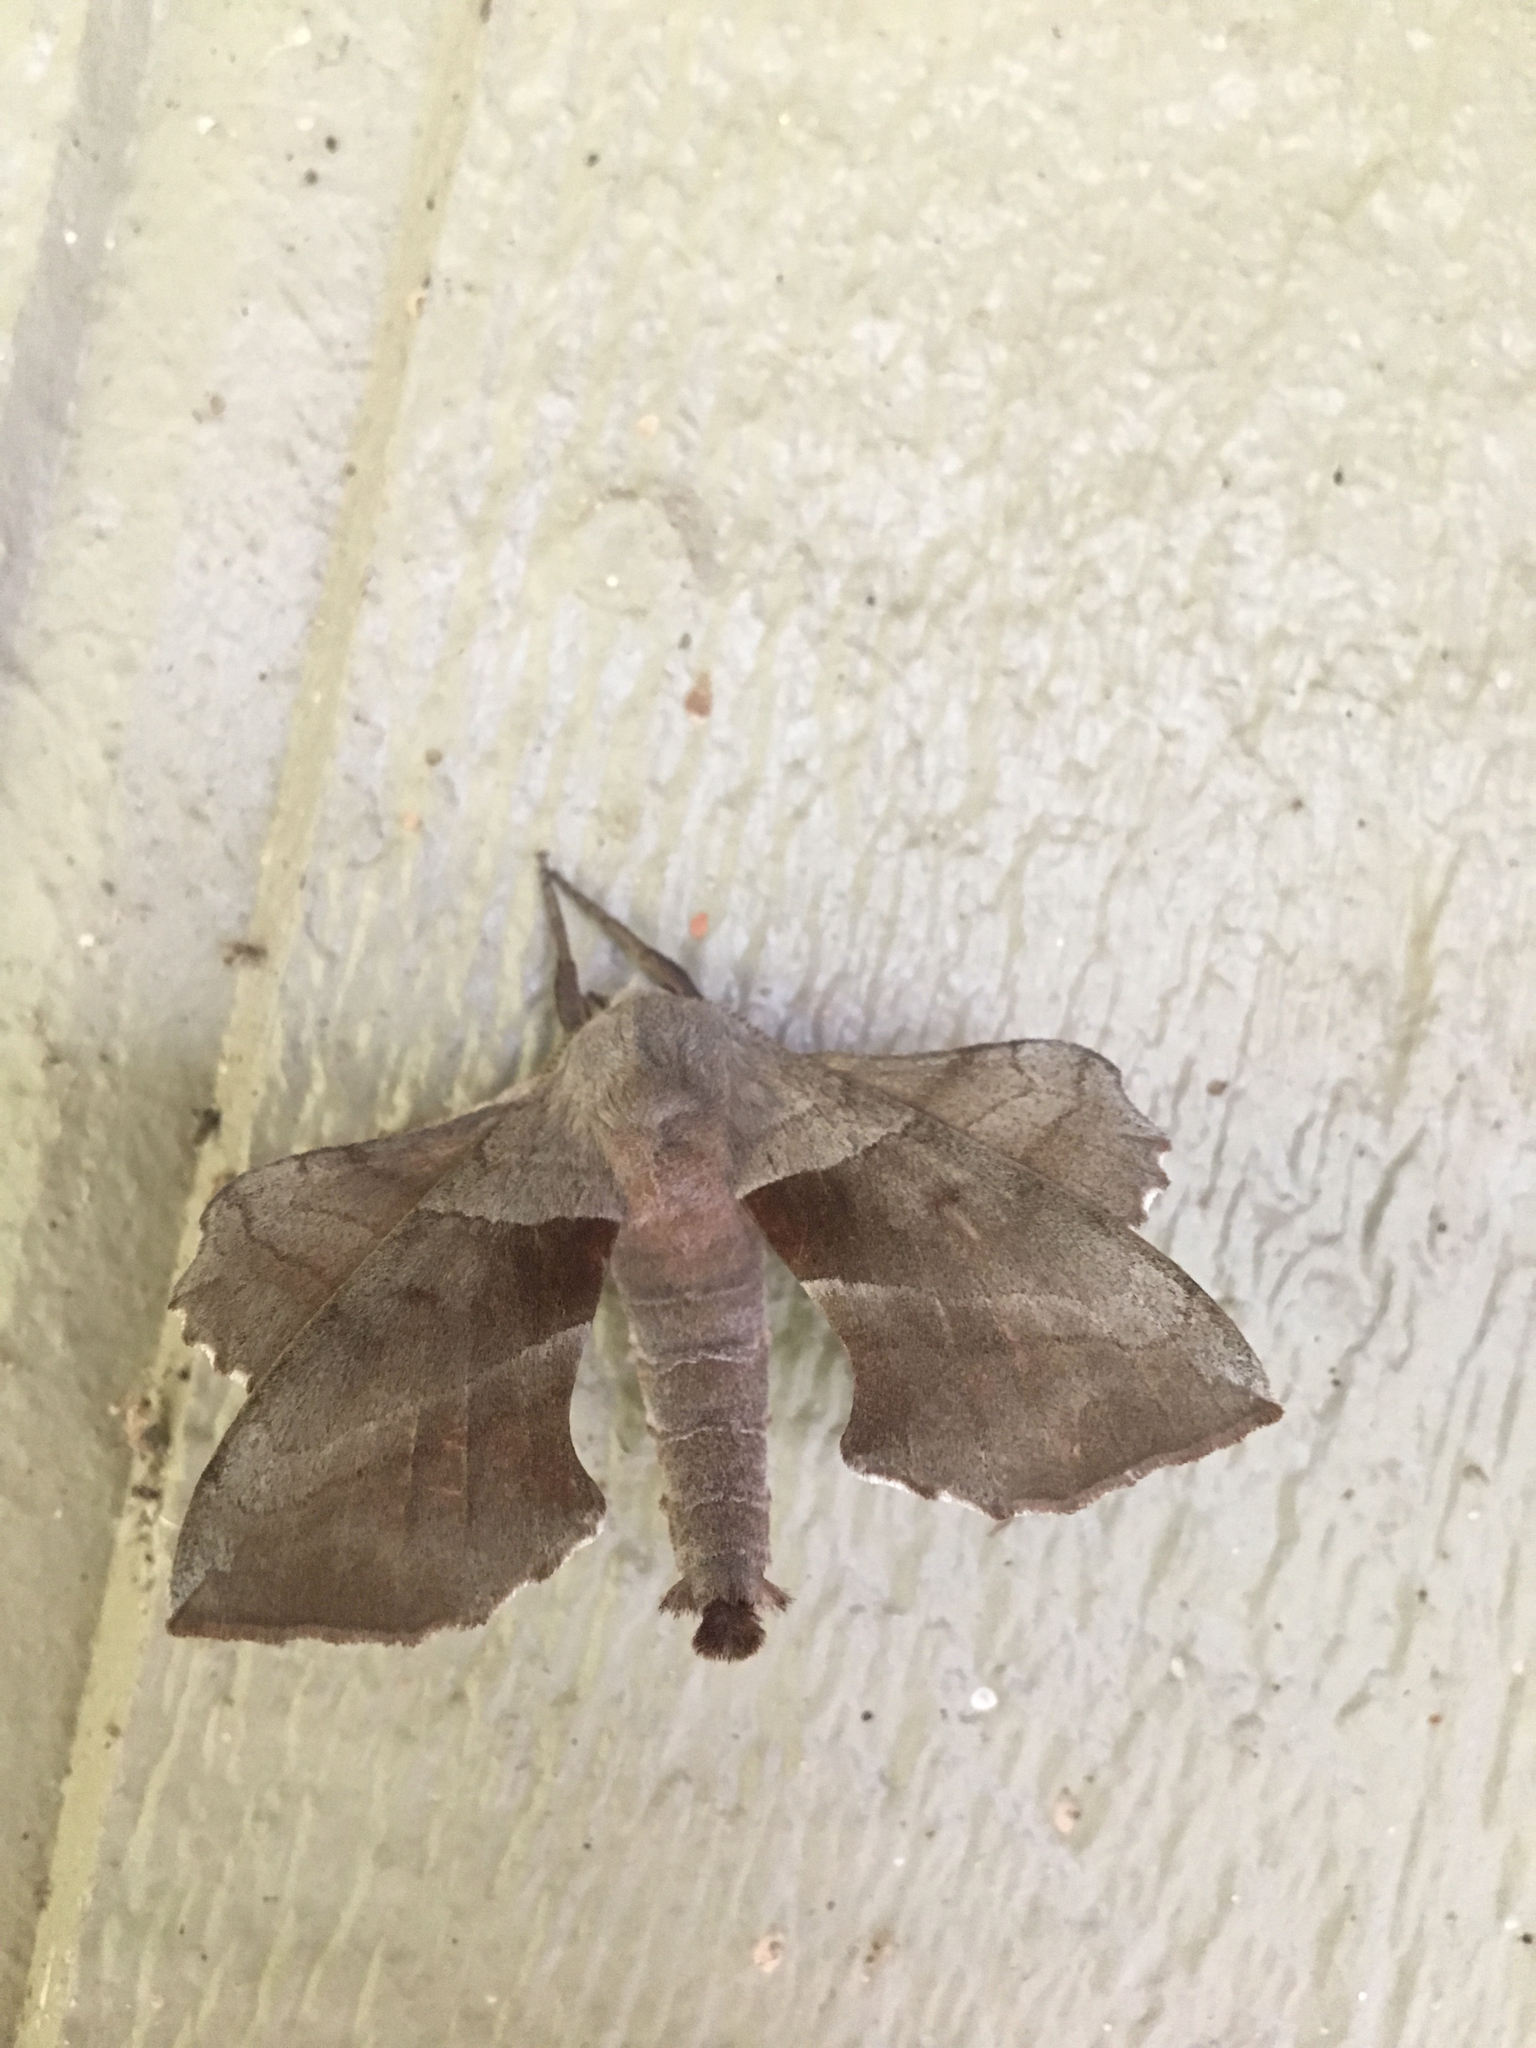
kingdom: Animalia
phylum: Arthropoda
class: Insecta
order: Lepidoptera
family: Sphingidae
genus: Amorpha
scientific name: Amorpha juglandis
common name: Walnut sphinx
